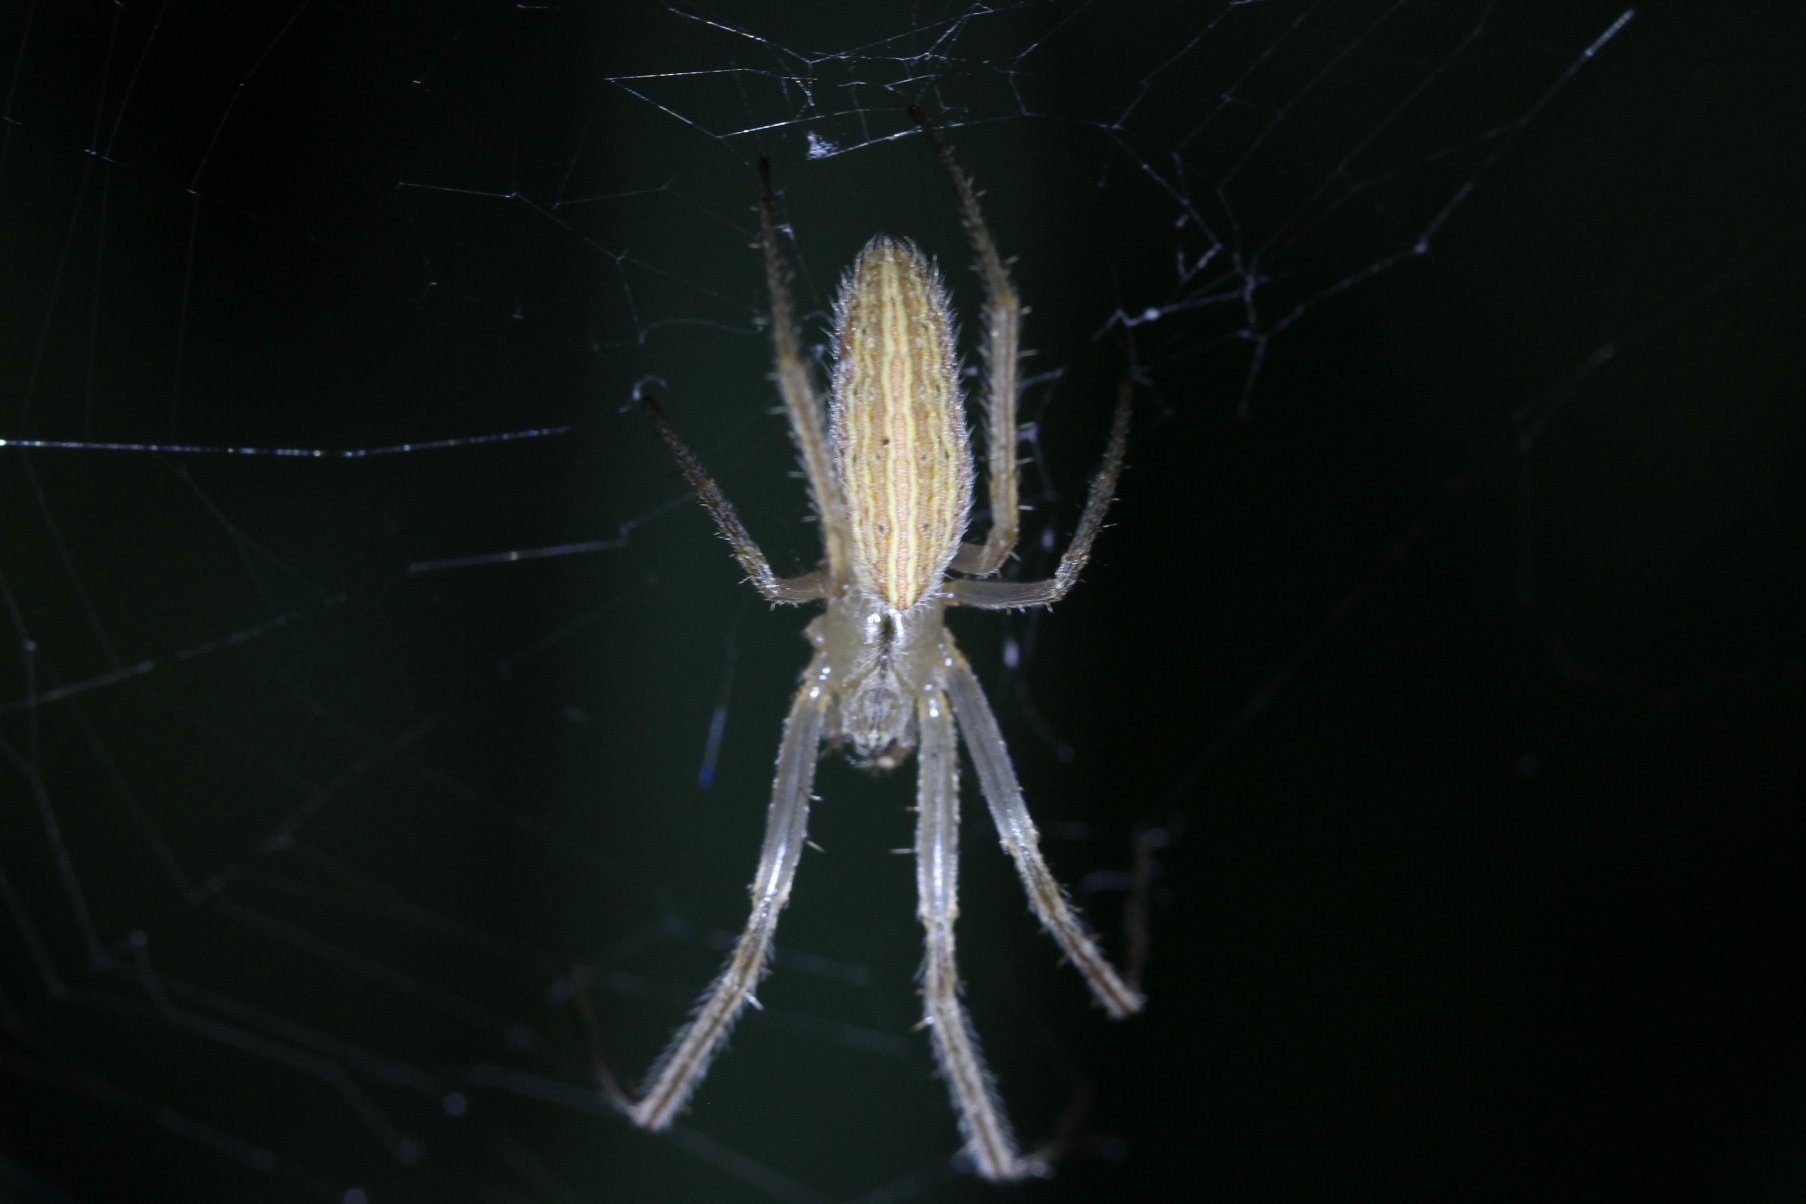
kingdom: Animalia
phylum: Arthropoda
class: Arachnida
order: Araneae
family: Araneidae
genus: Larinia
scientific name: Larinia directa
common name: Orb weavers
